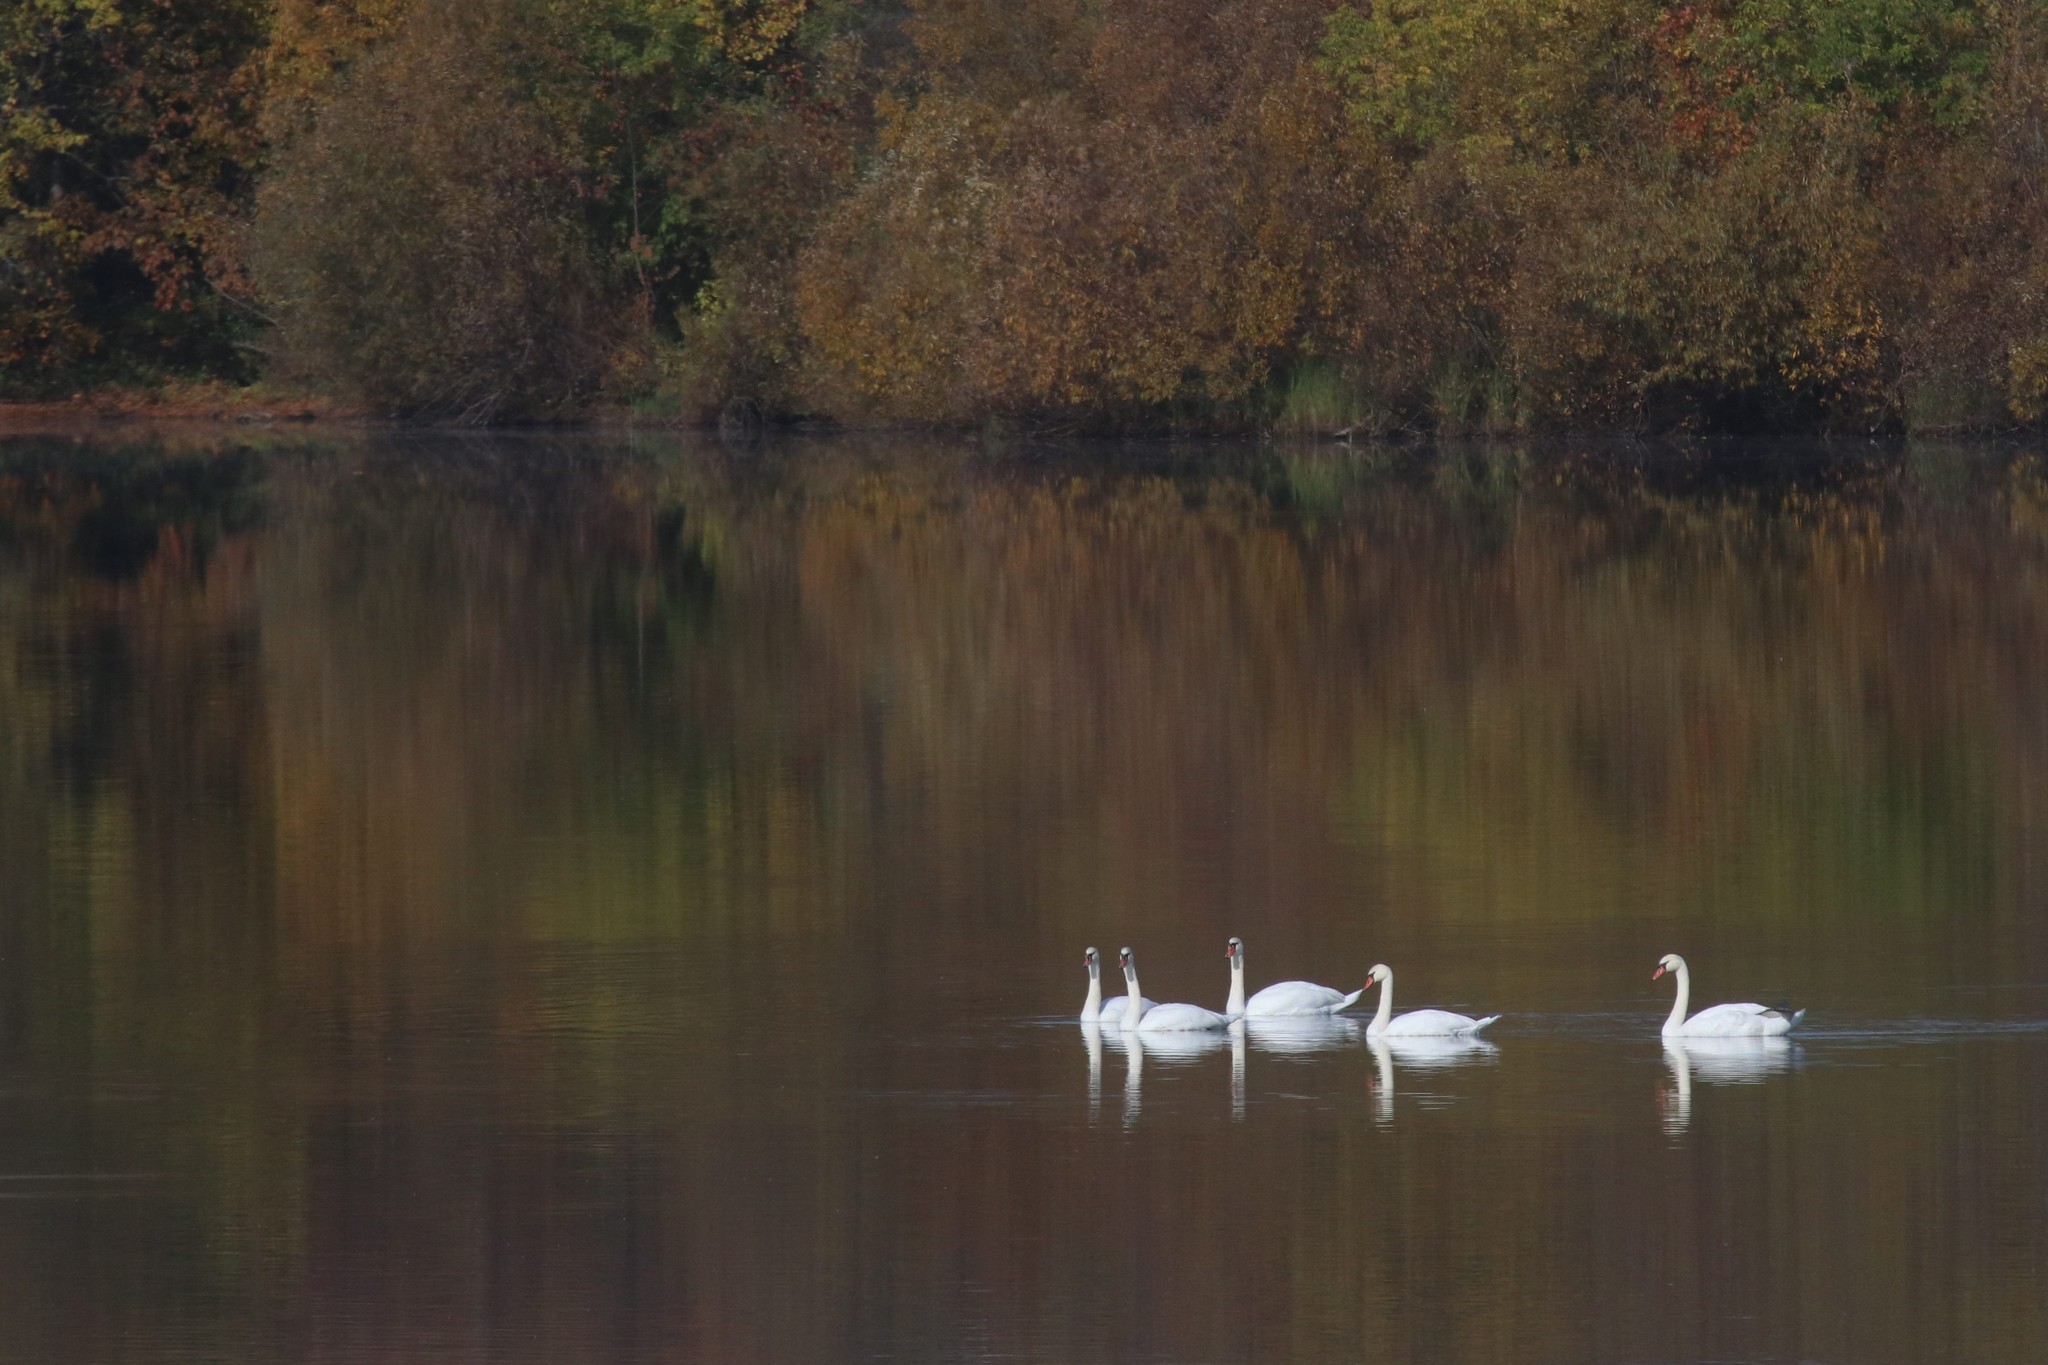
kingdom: Animalia
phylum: Chordata
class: Aves
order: Anseriformes
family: Anatidae
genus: Cygnus
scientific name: Cygnus olor
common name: Mute swan
